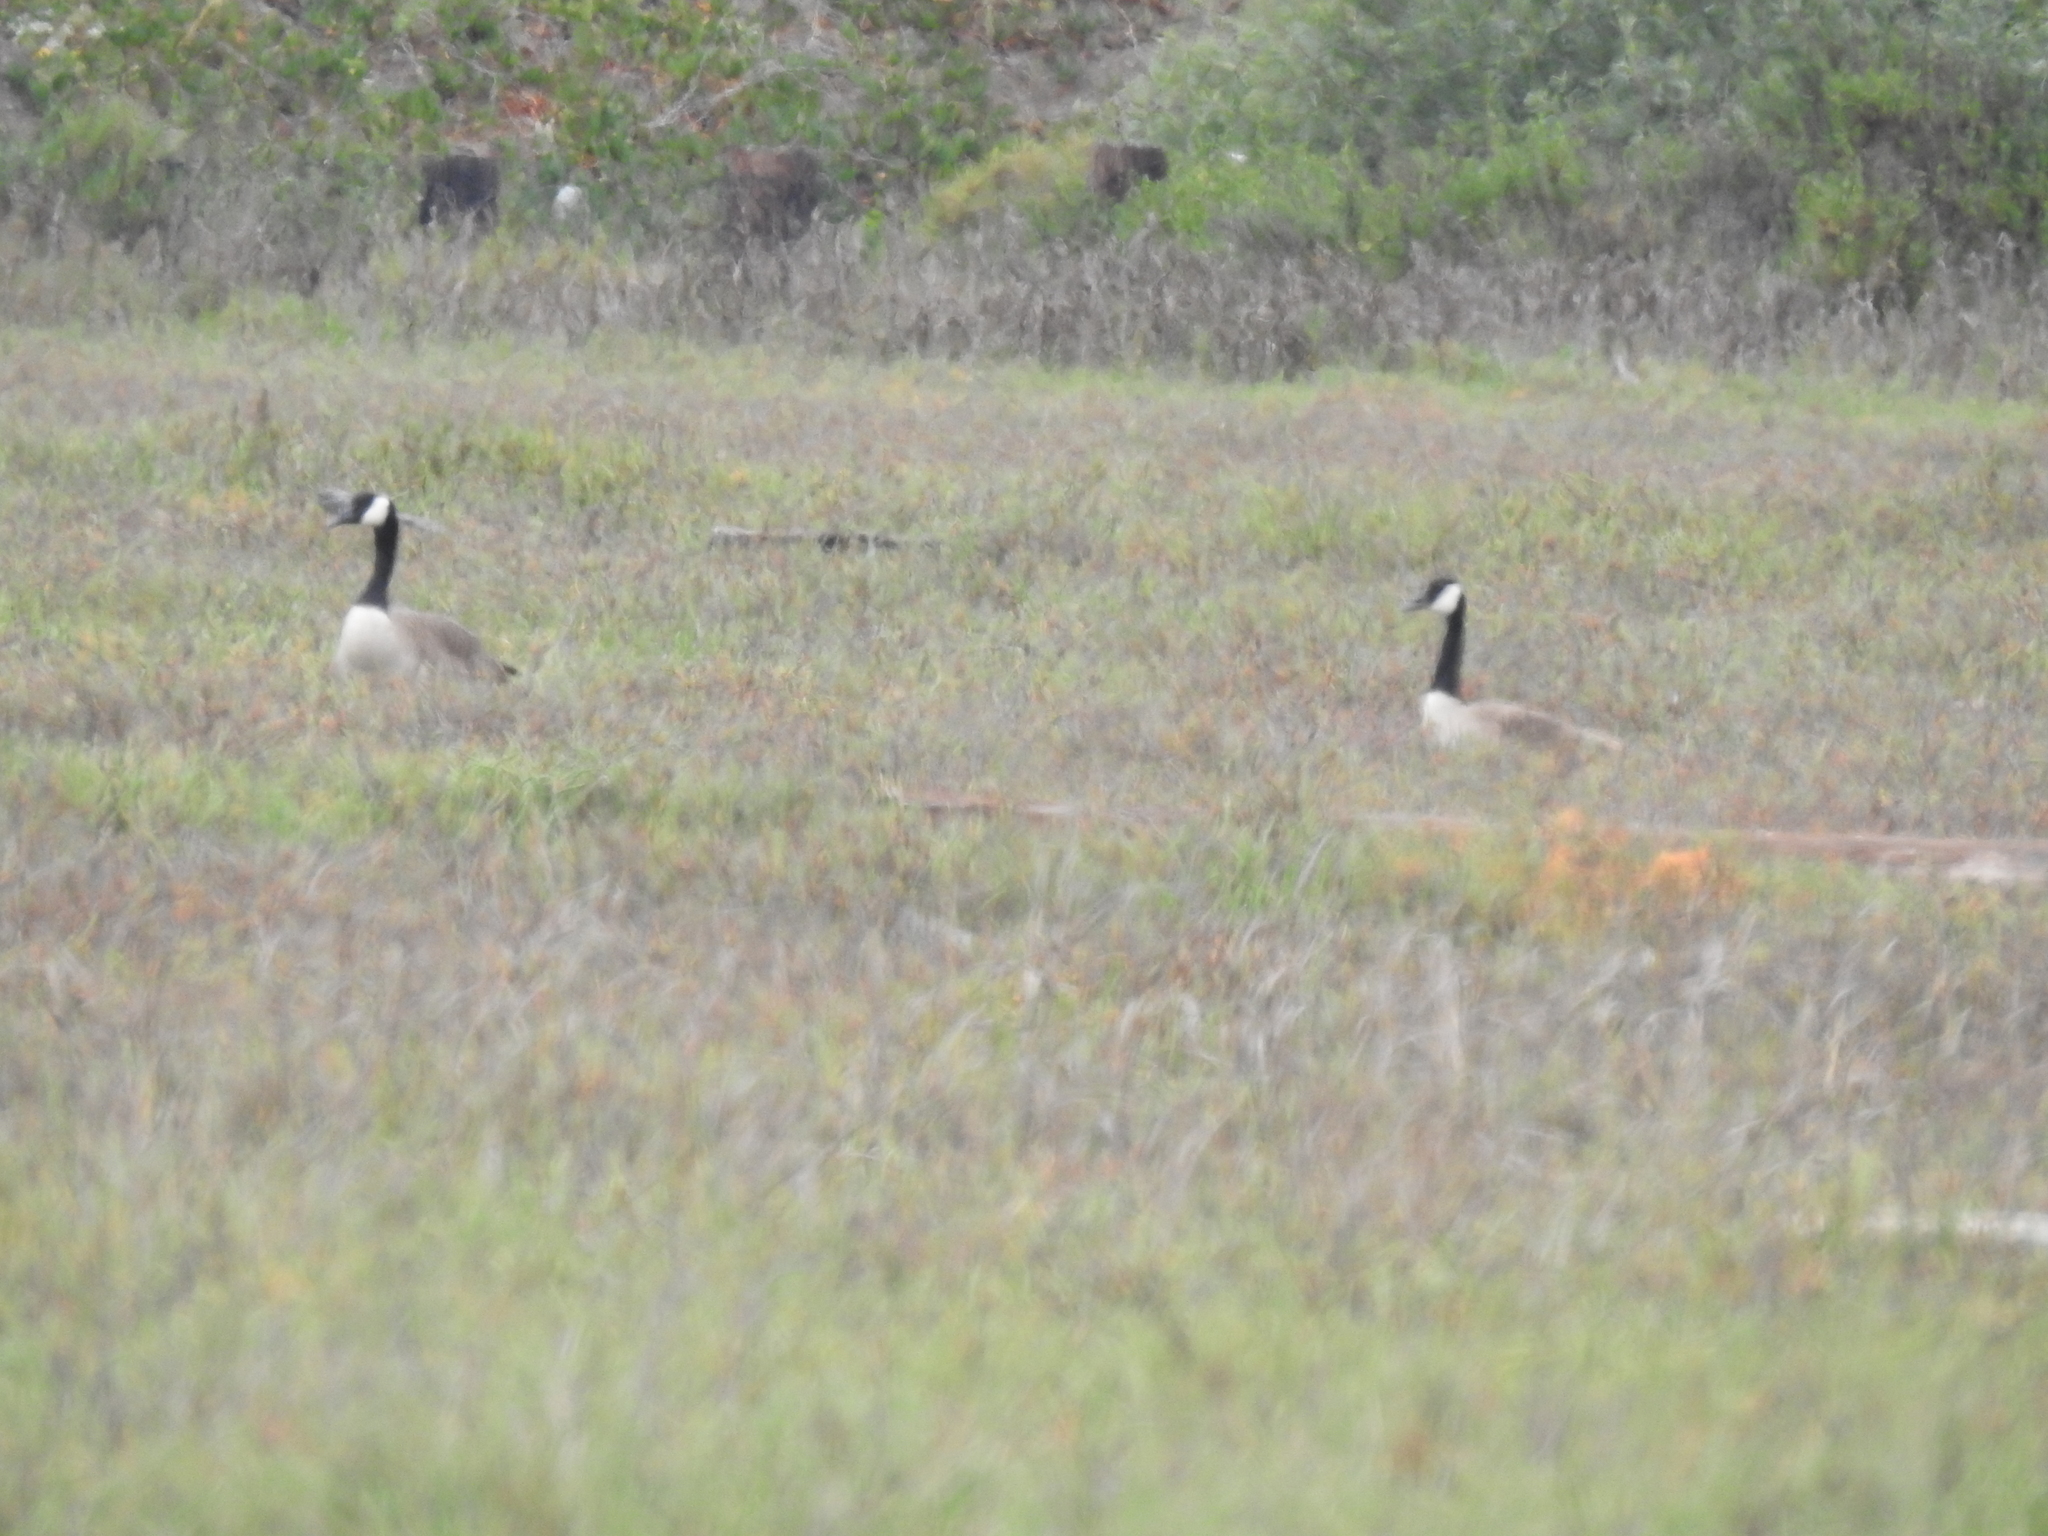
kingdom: Animalia
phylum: Chordata
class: Aves
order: Anseriformes
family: Anatidae
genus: Branta
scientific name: Branta canadensis
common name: Canada goose
